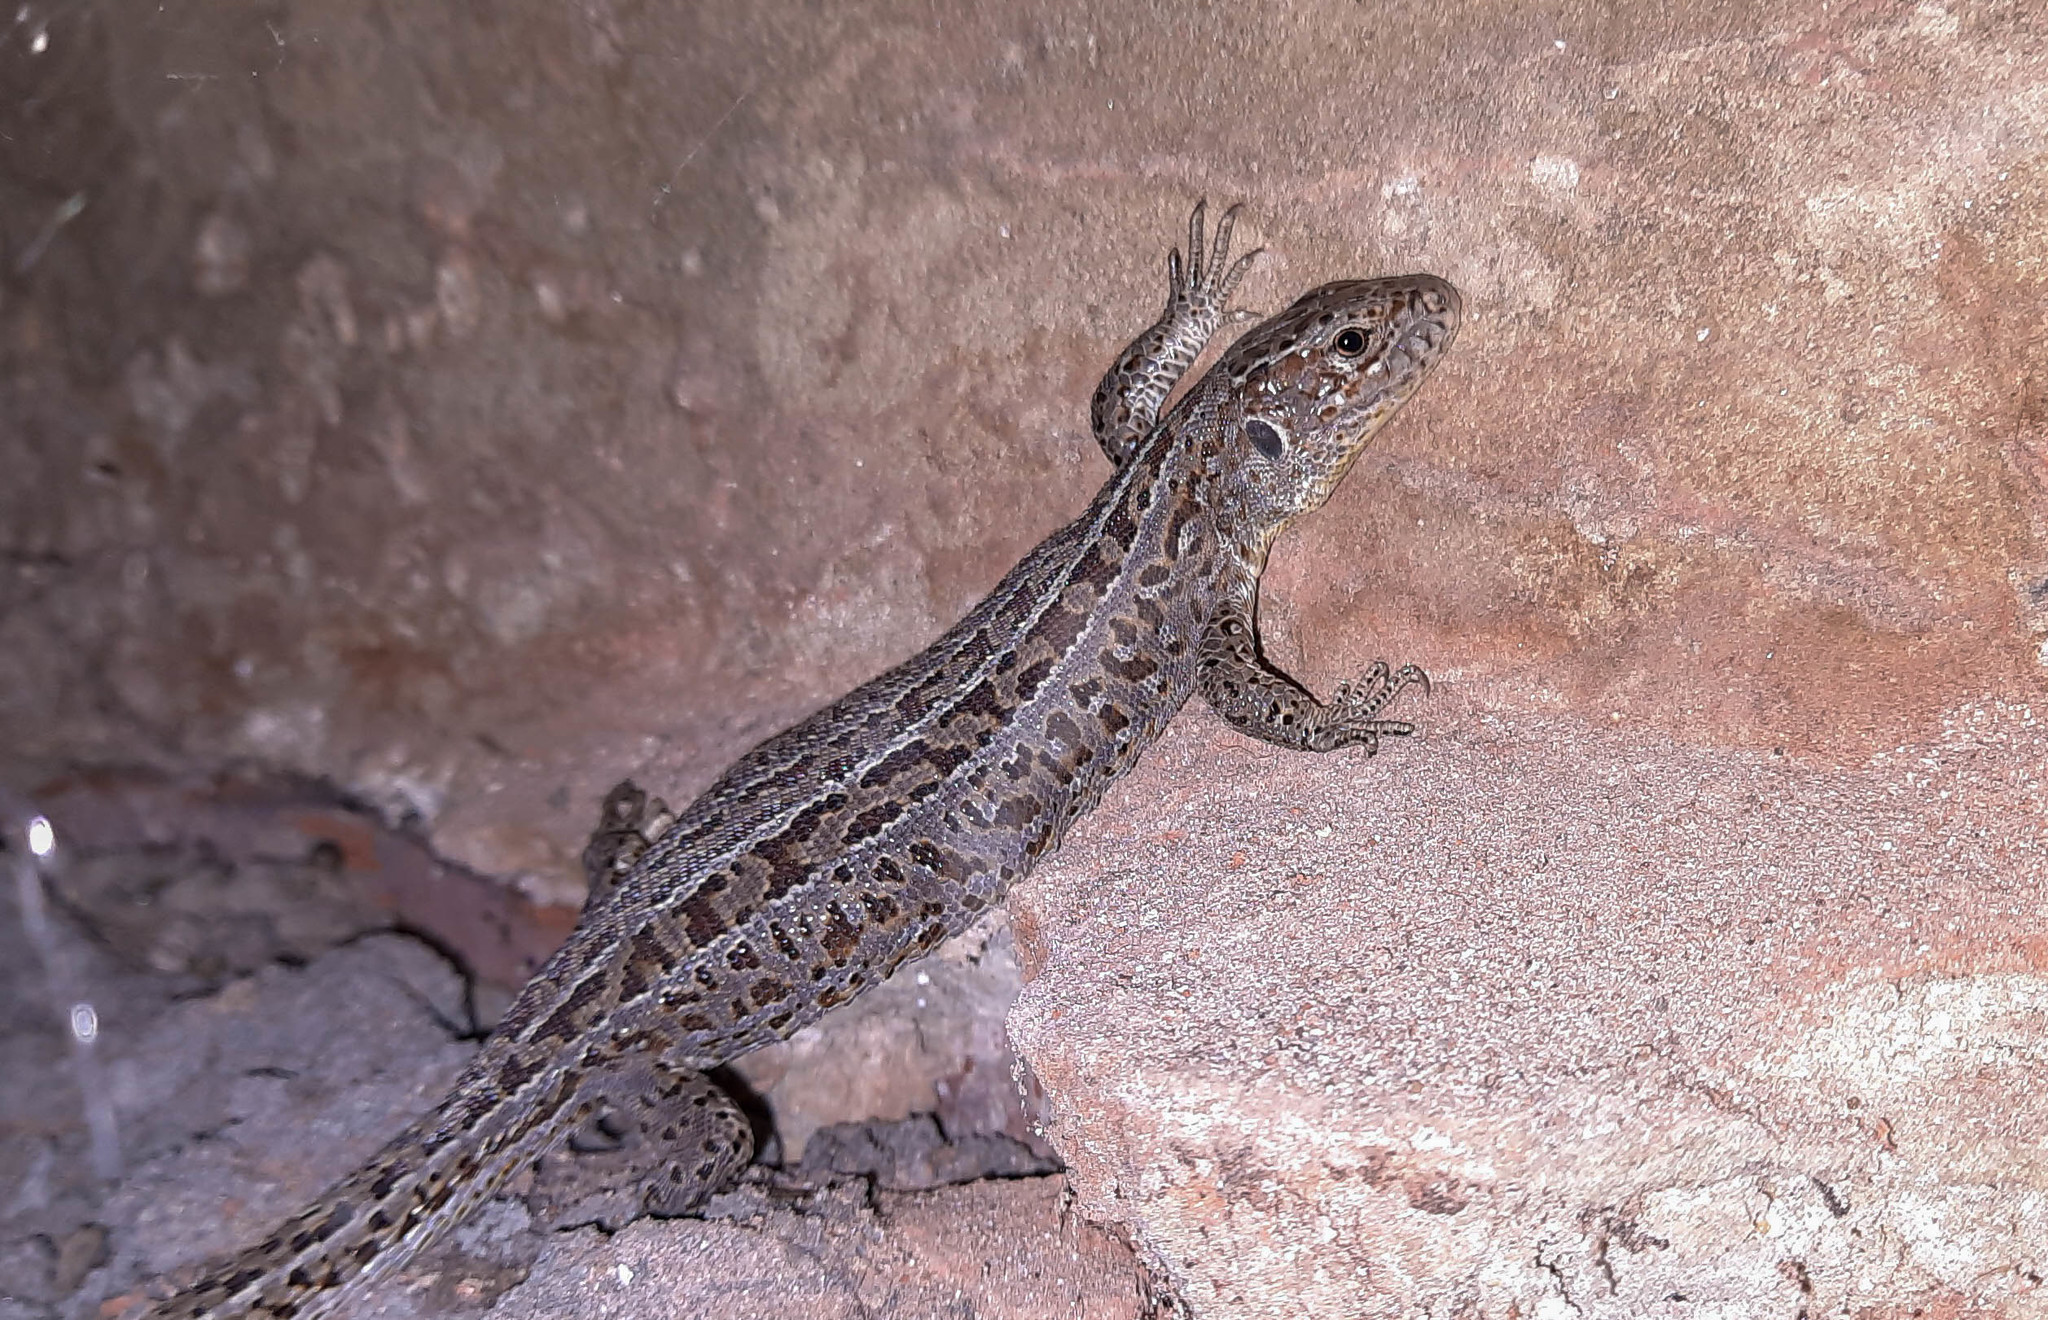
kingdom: Animalia
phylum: Chordata
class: Squamata
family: Lacertidae
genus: Lacerta
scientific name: Lacerta agilis
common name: Sand lizard
